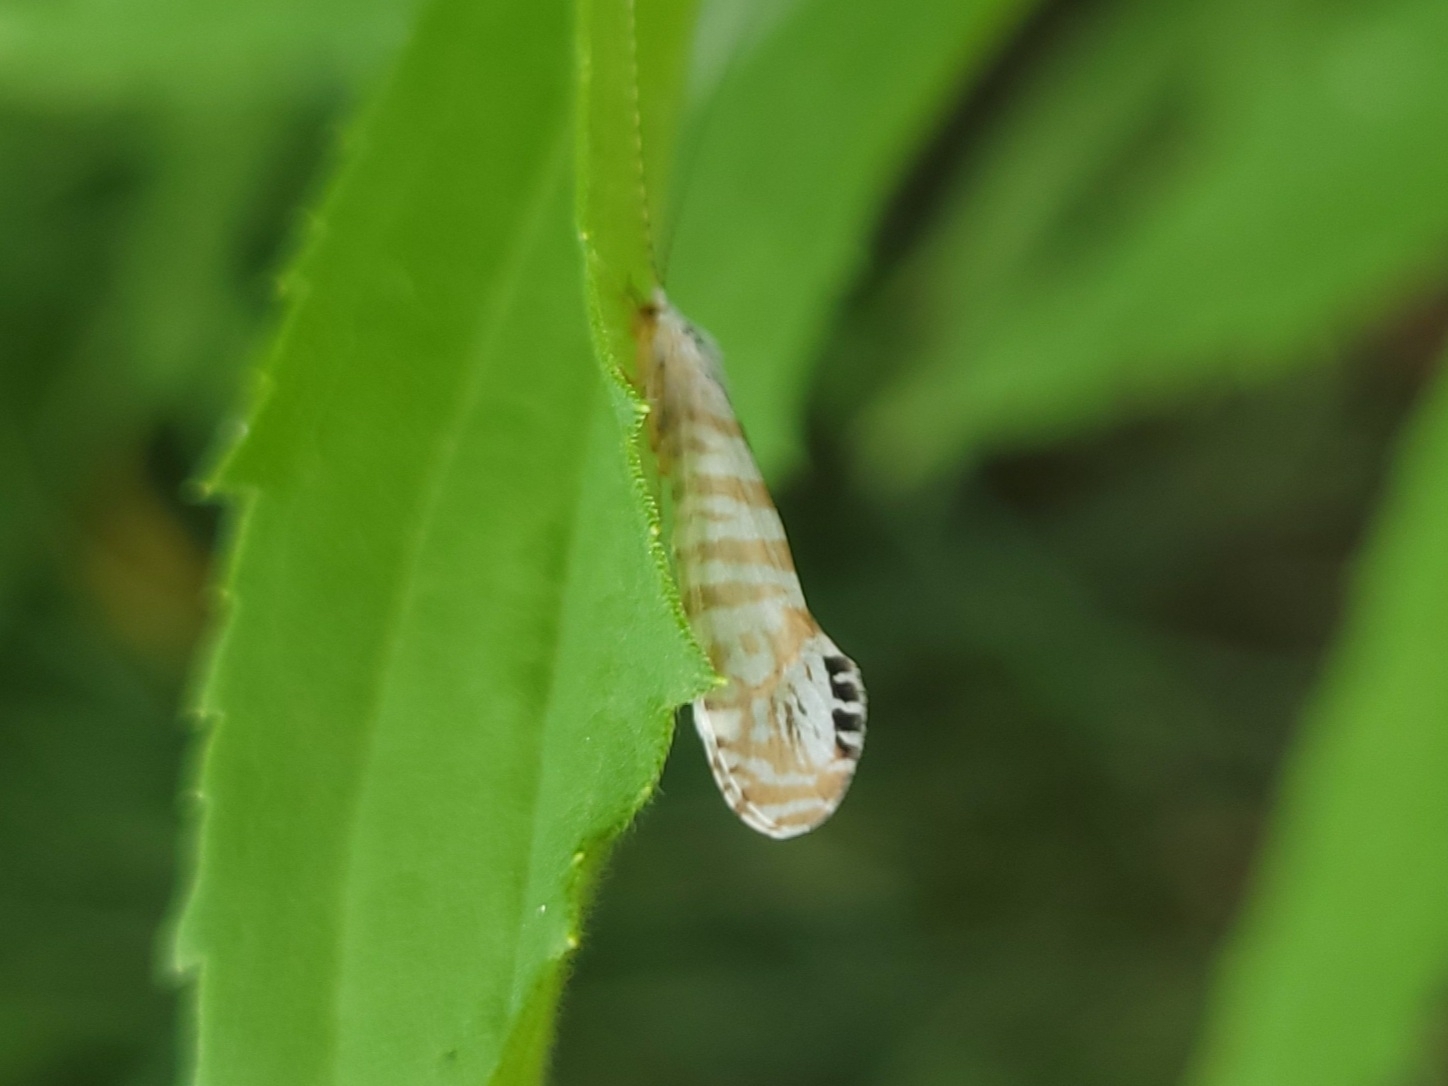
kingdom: Animalia
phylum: Arthropoda
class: Insecta
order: Trichoptera
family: Leptoceridae
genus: Nectopsyche
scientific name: Nectopsyche exquisita
